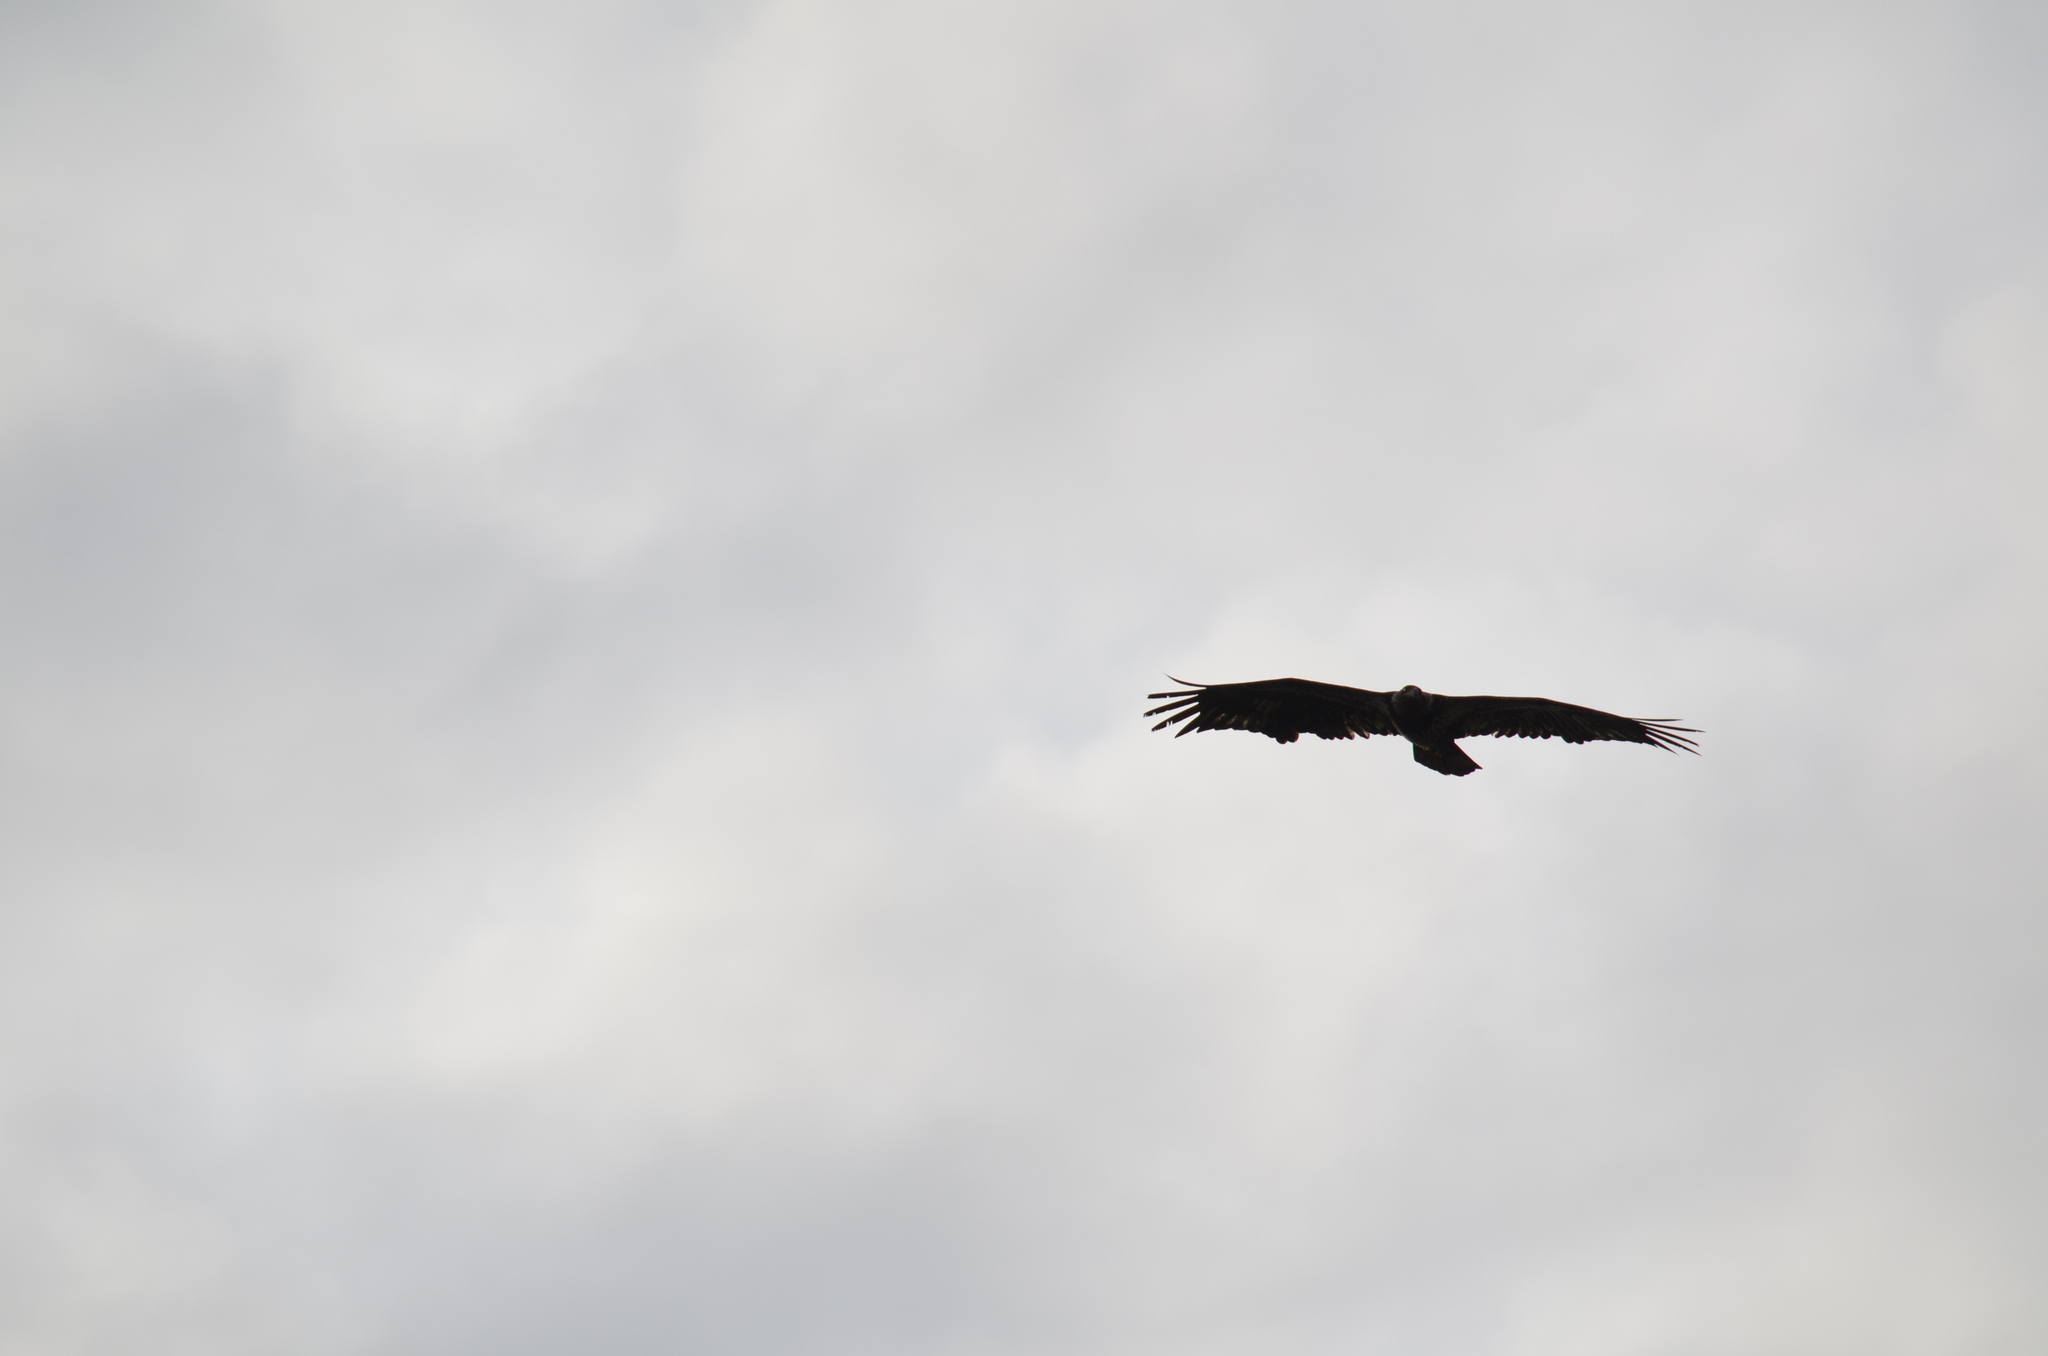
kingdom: Animalia
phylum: Chordata
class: Aves
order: Accipitriformes
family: Accipitridae
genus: Haliaeetus
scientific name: Haliaeetus leucocephalus
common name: Bald eagle
